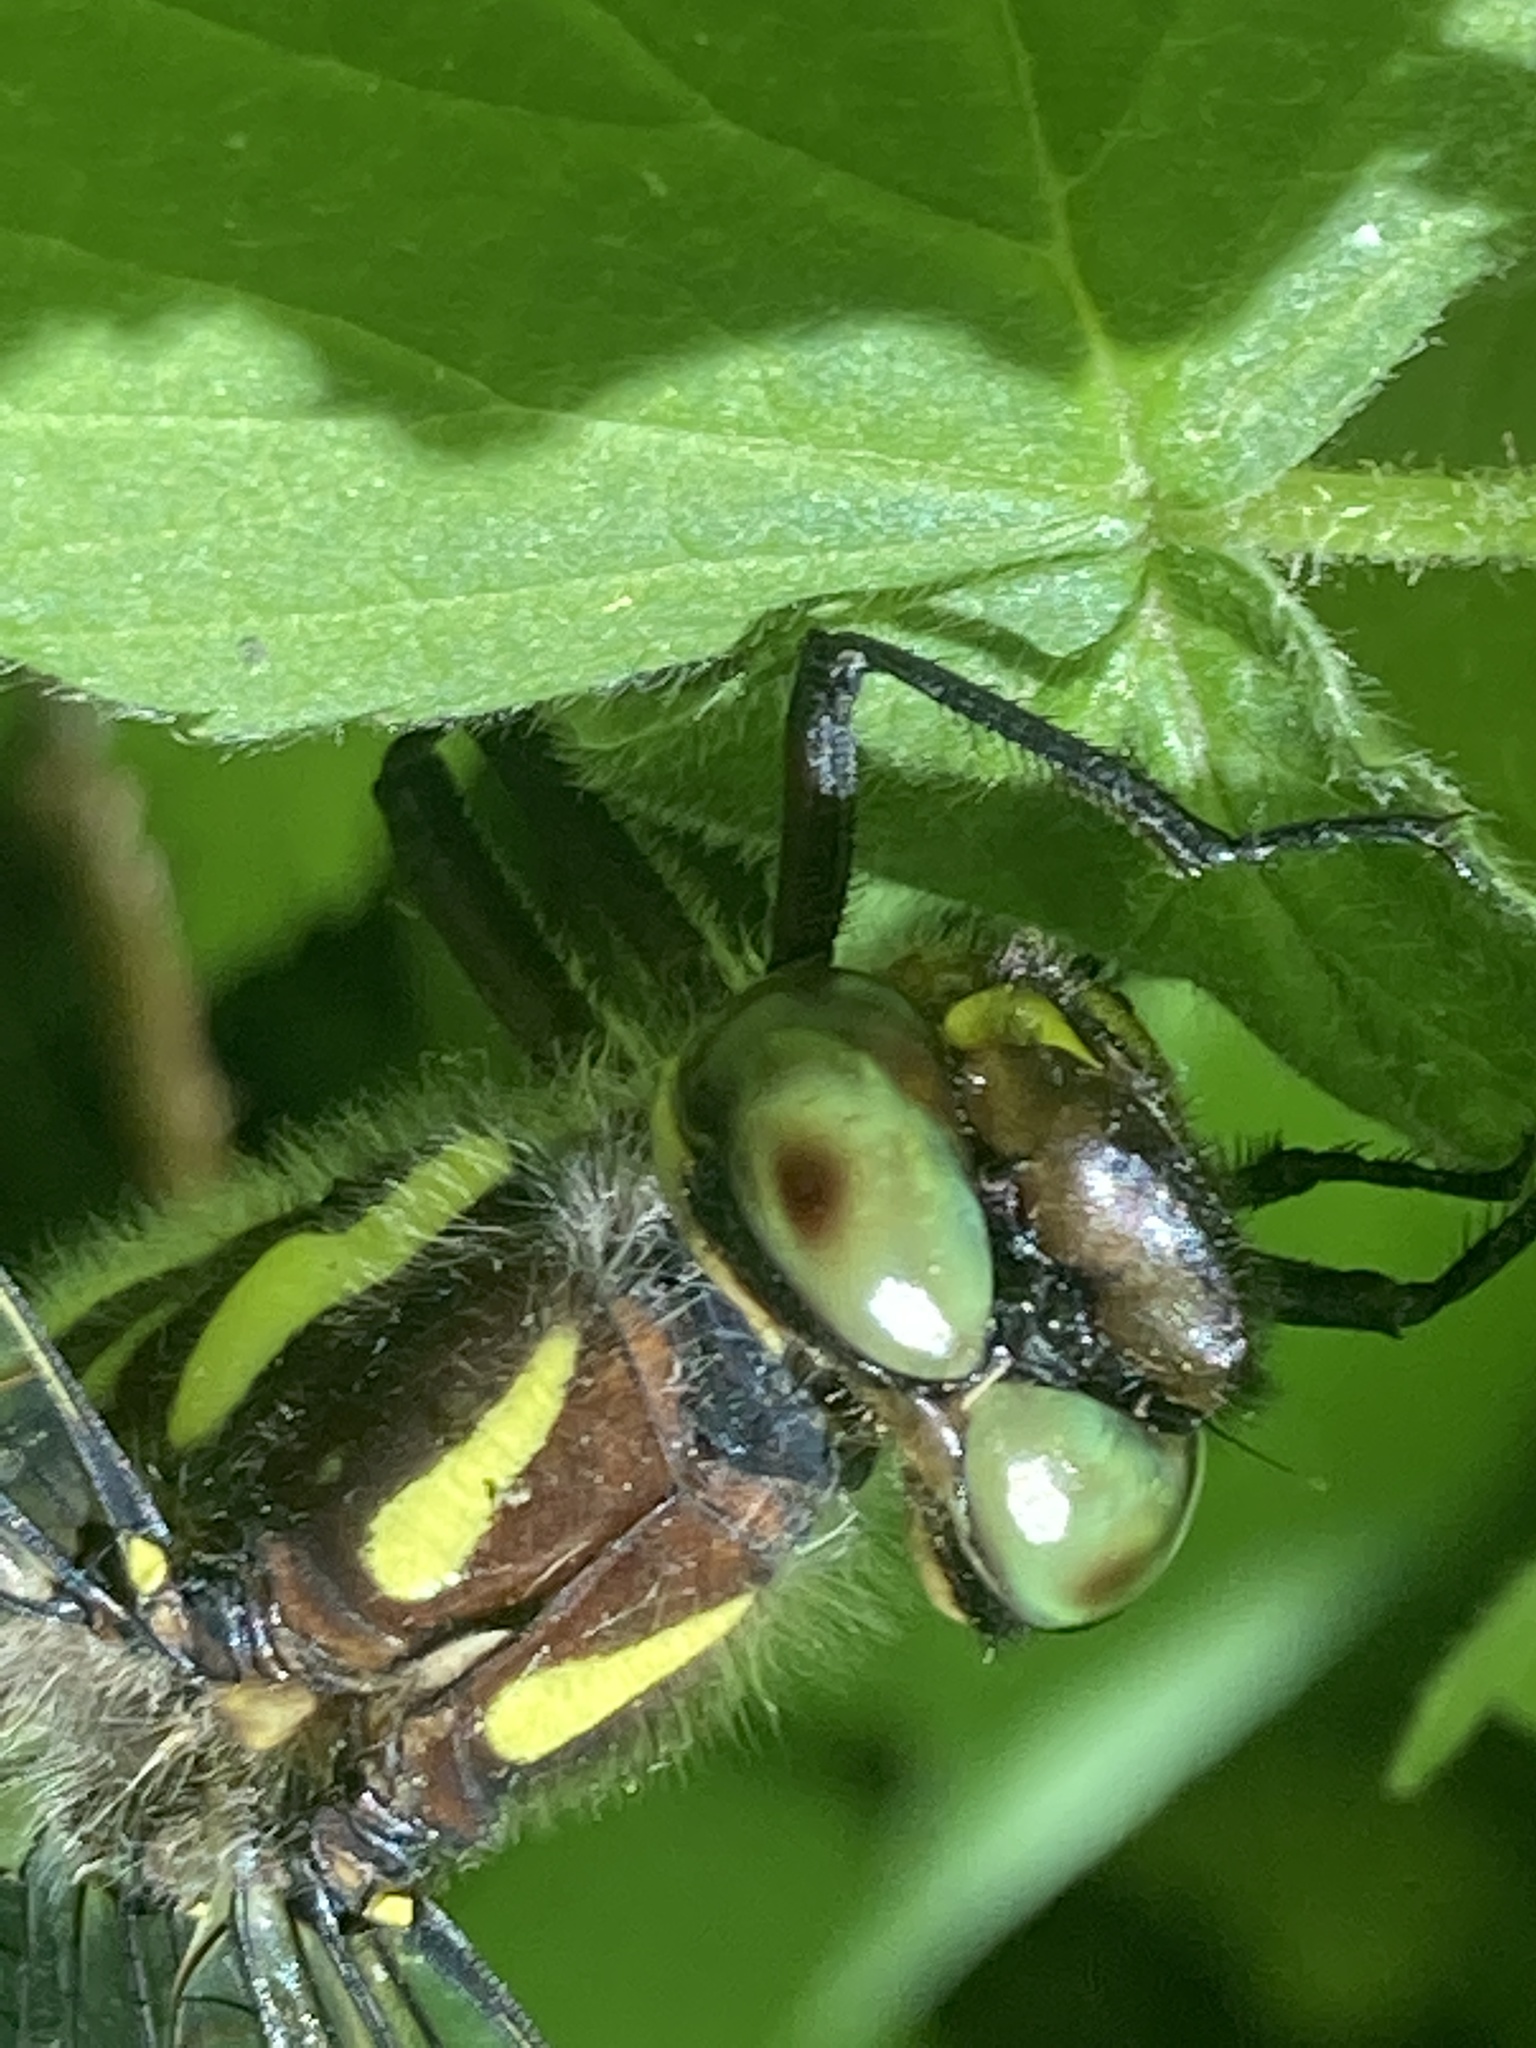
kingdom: Animalia
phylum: Arthropoda
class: Insecta
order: Odonata
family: Cordulegastridae
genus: Cordulegaster
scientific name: Cordulegaster maculata
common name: Twin-spotted spiketail
